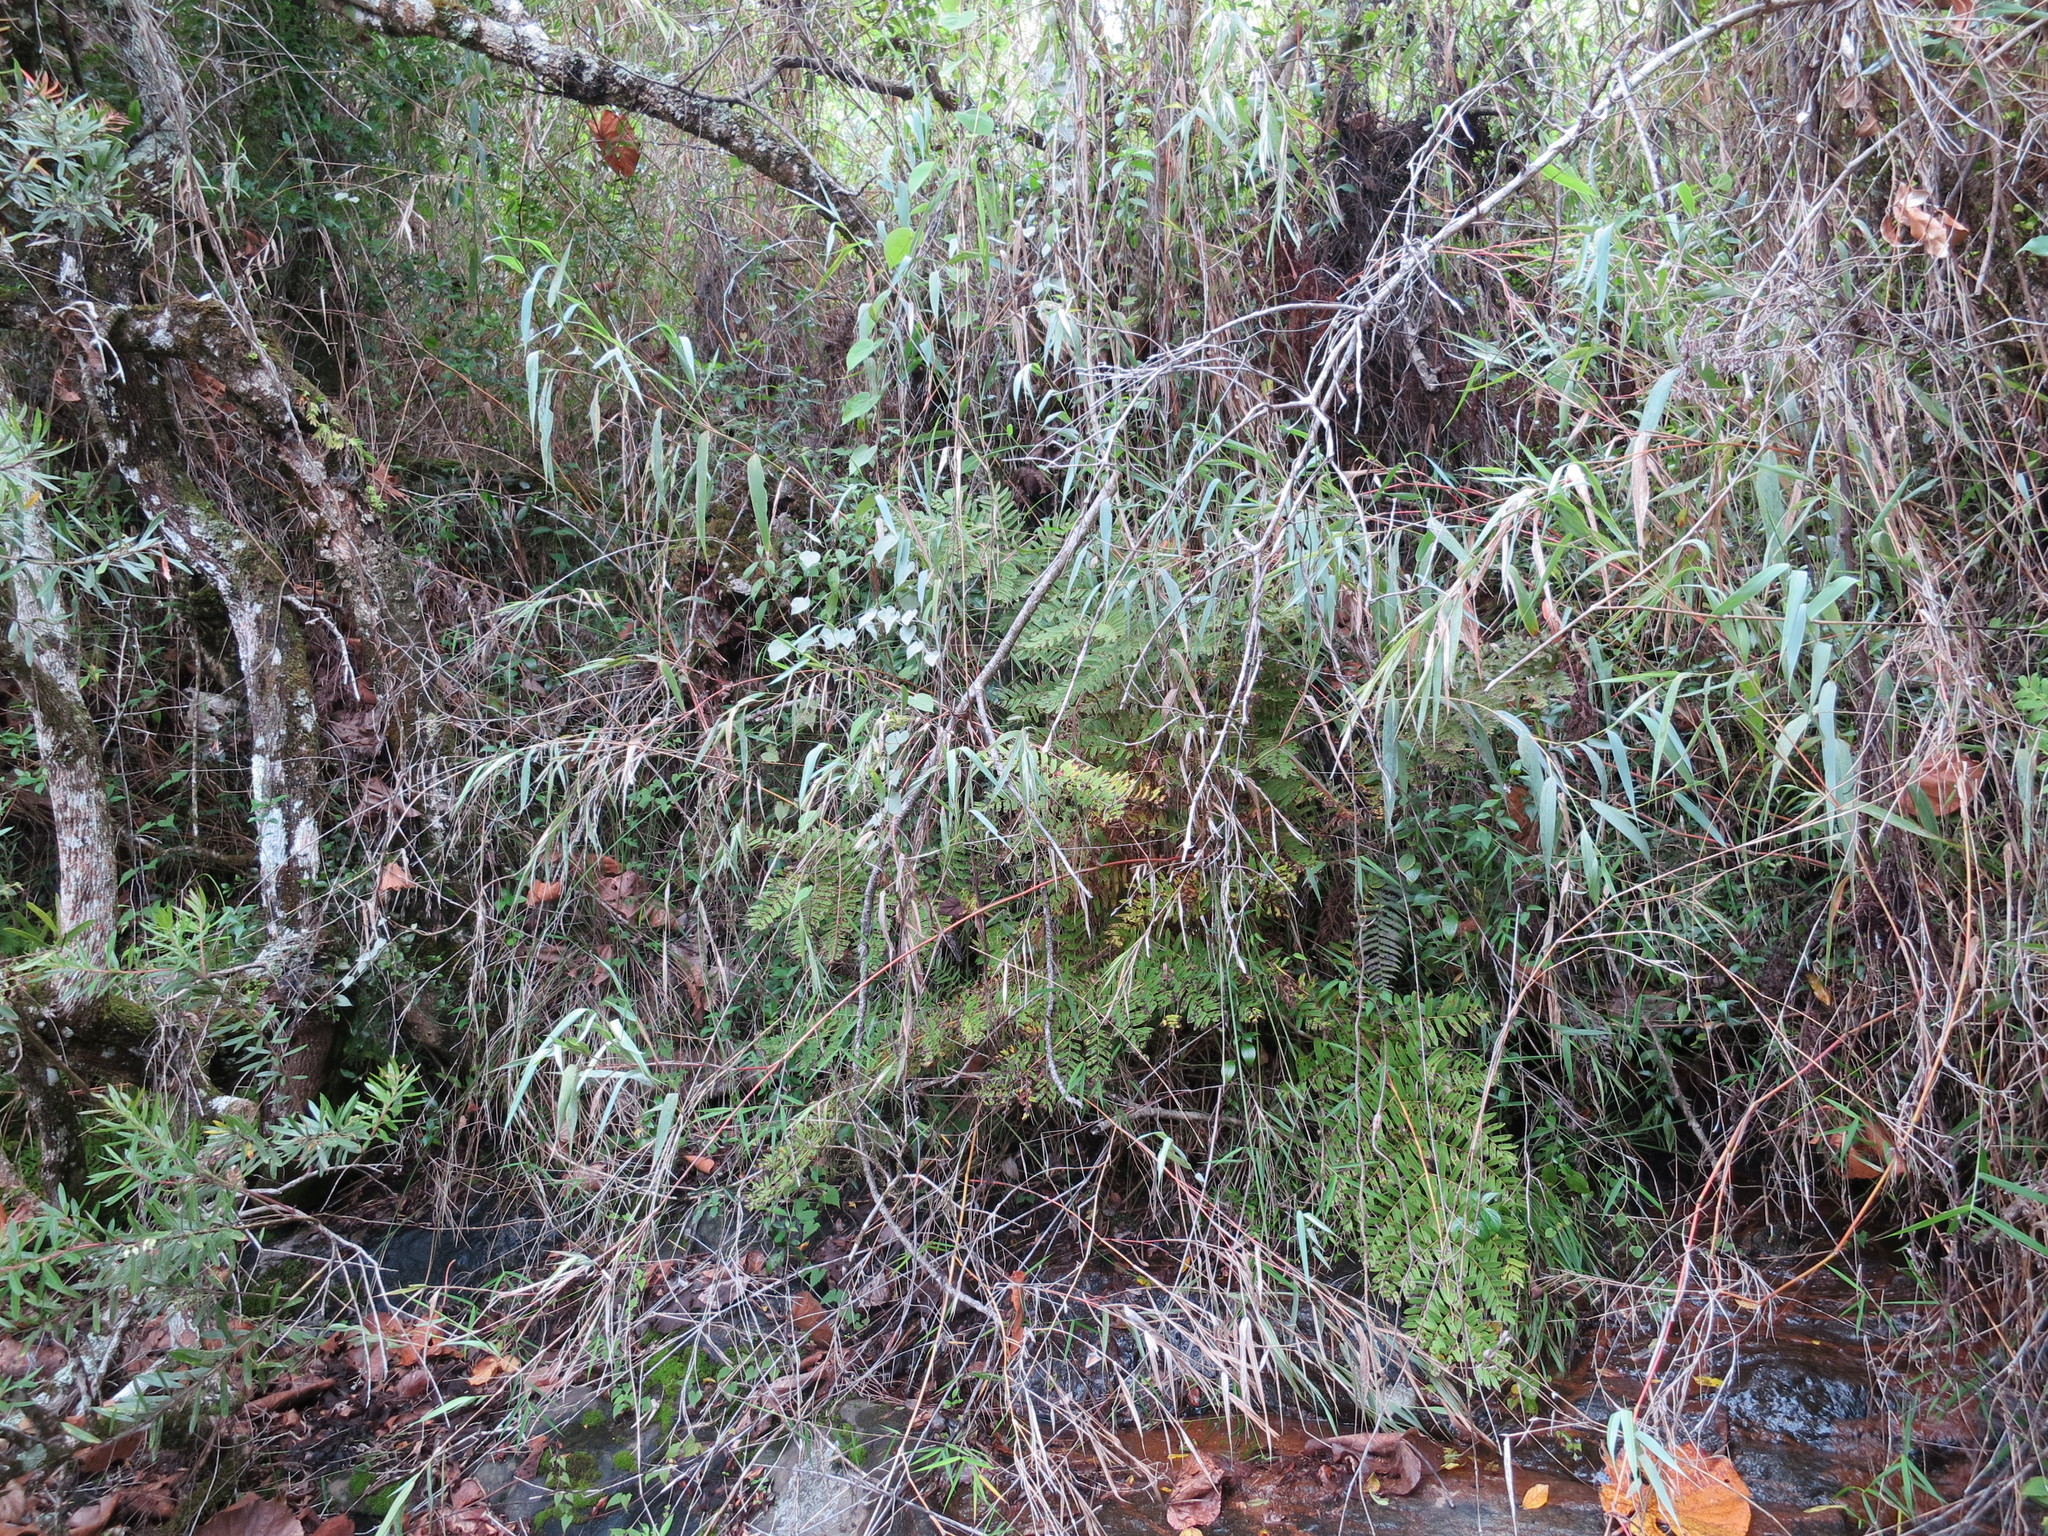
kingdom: Plantae
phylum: Tracheophyta
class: Liliopsida
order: Poales
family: Poaceae
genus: Lecomtella
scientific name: Lecomtella madagascariensis
